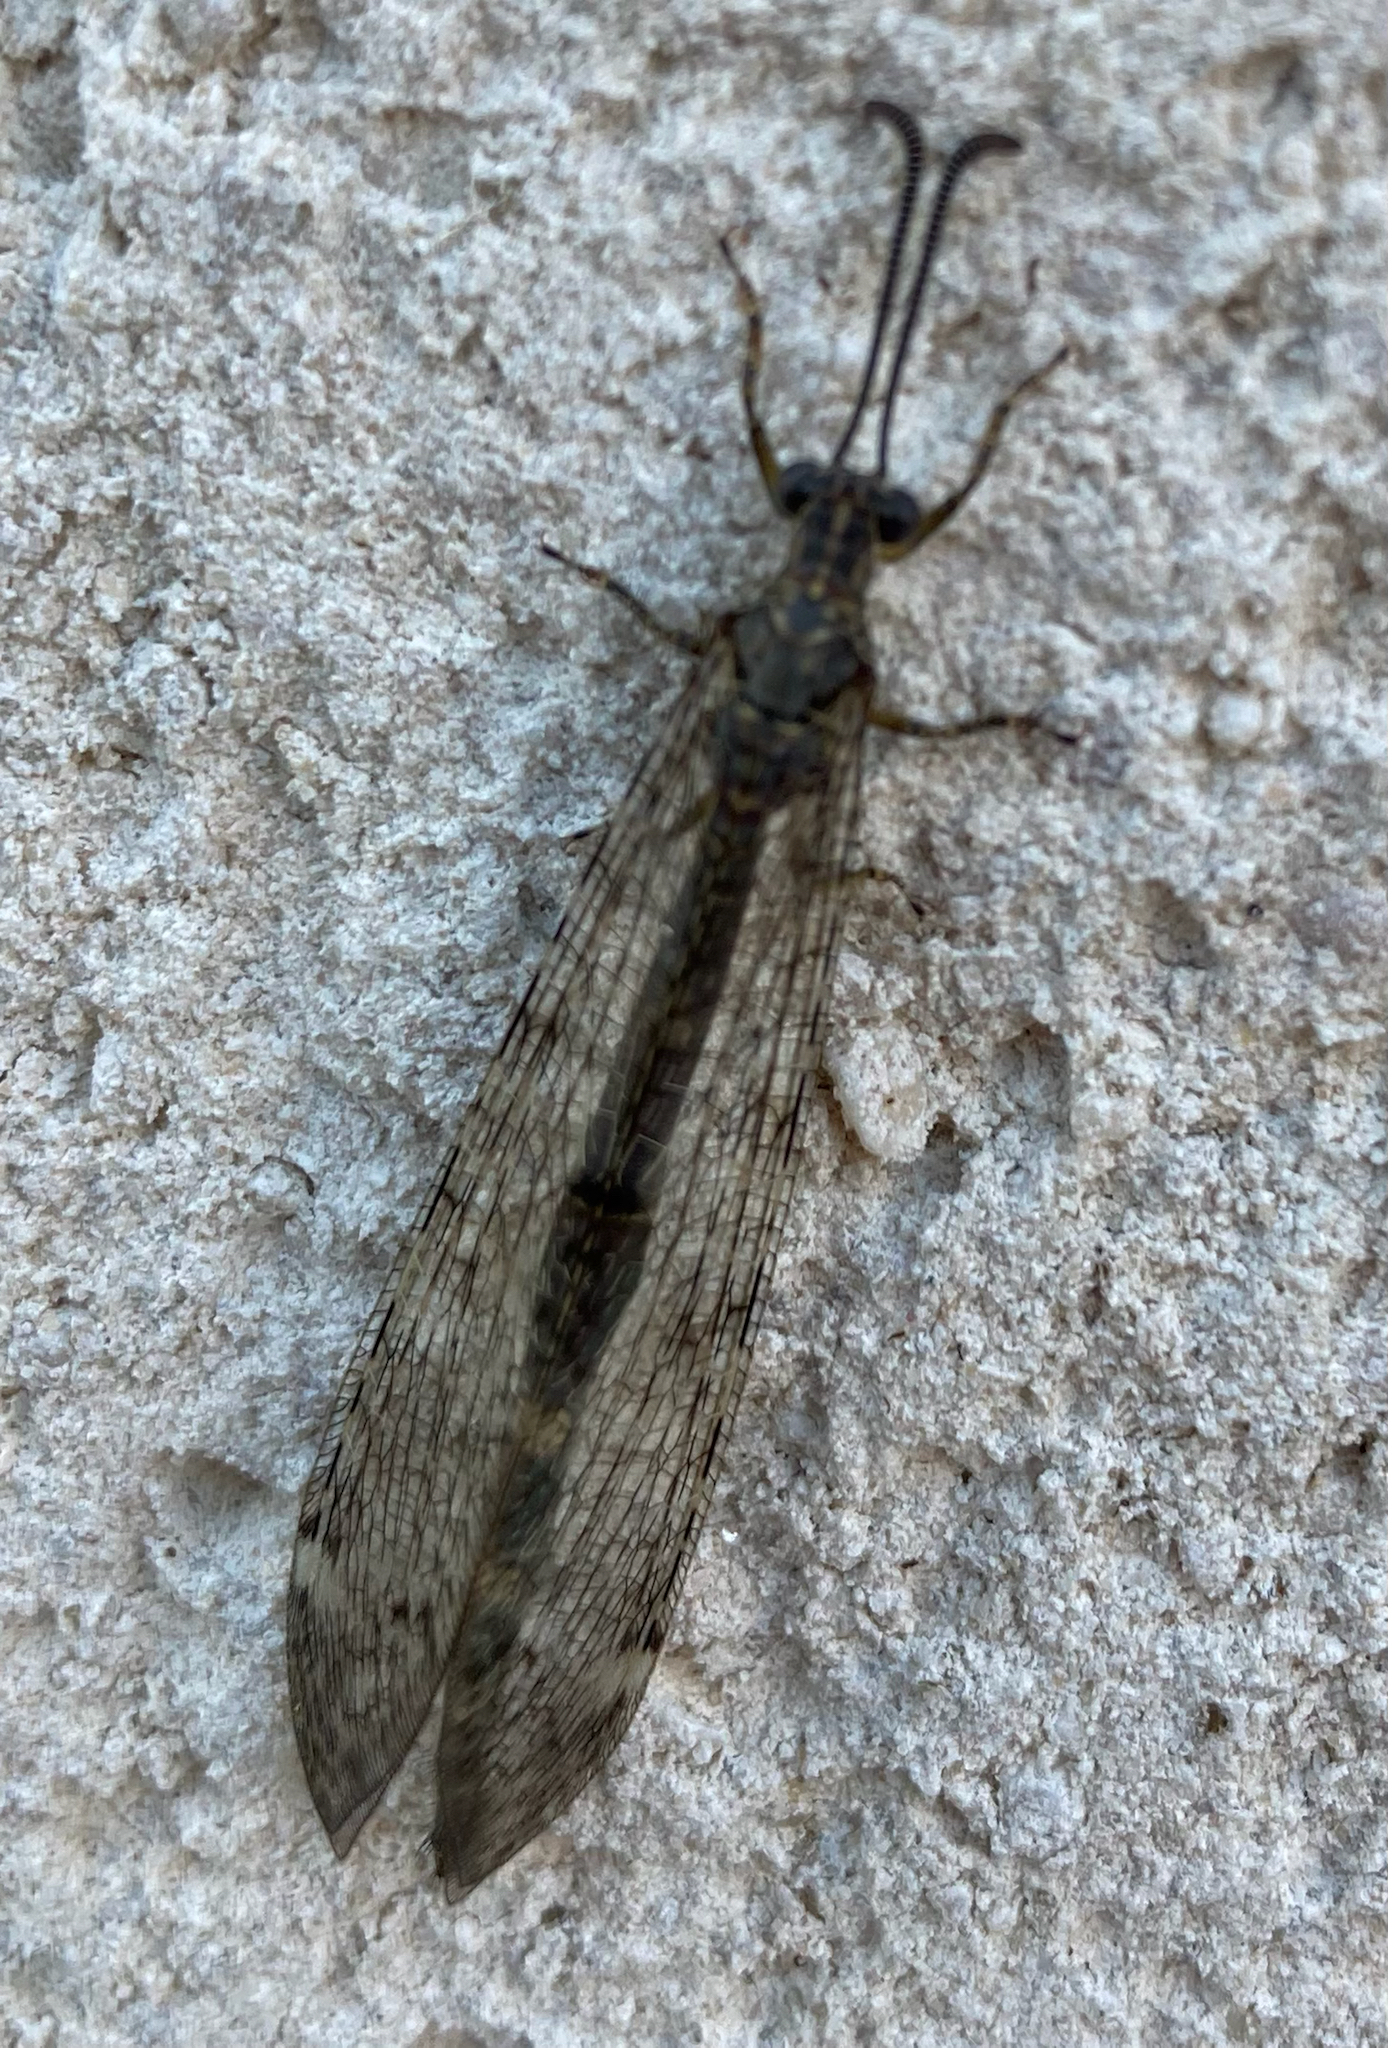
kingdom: Animalia
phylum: Arthropoda
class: Insecta
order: Neuroptera
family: Myrmeleontidae
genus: Distoleon
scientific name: Distoleon tetragrammicus
